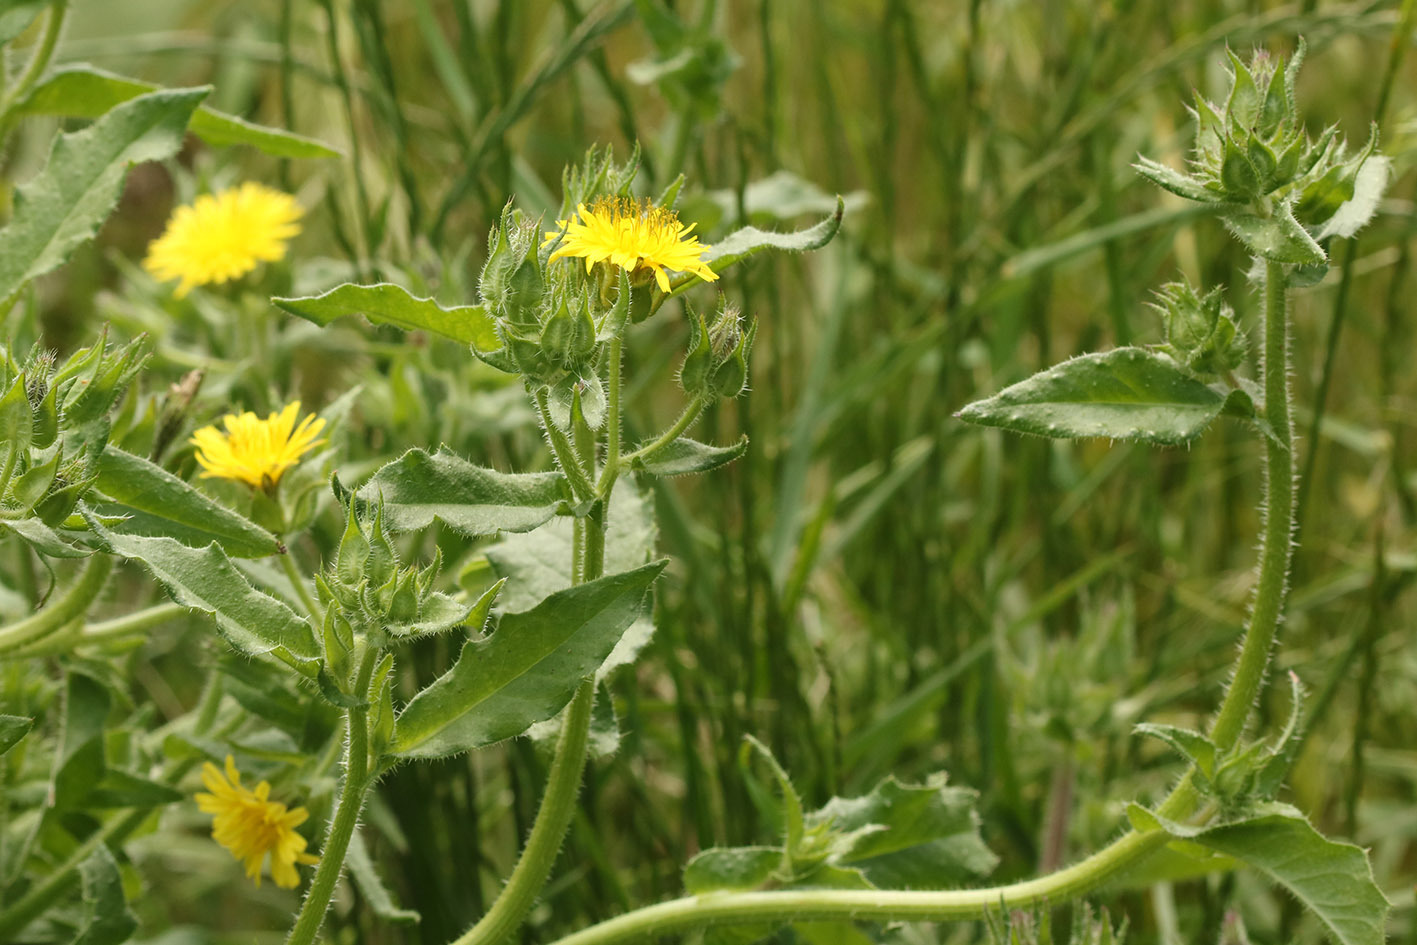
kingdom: Plantae
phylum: Tracheophyta
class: Magnoliopsida
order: Asterales
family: Asteraceae
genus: Helminthotheca
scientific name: Helminthotheca echioides
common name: Ox-tongue
